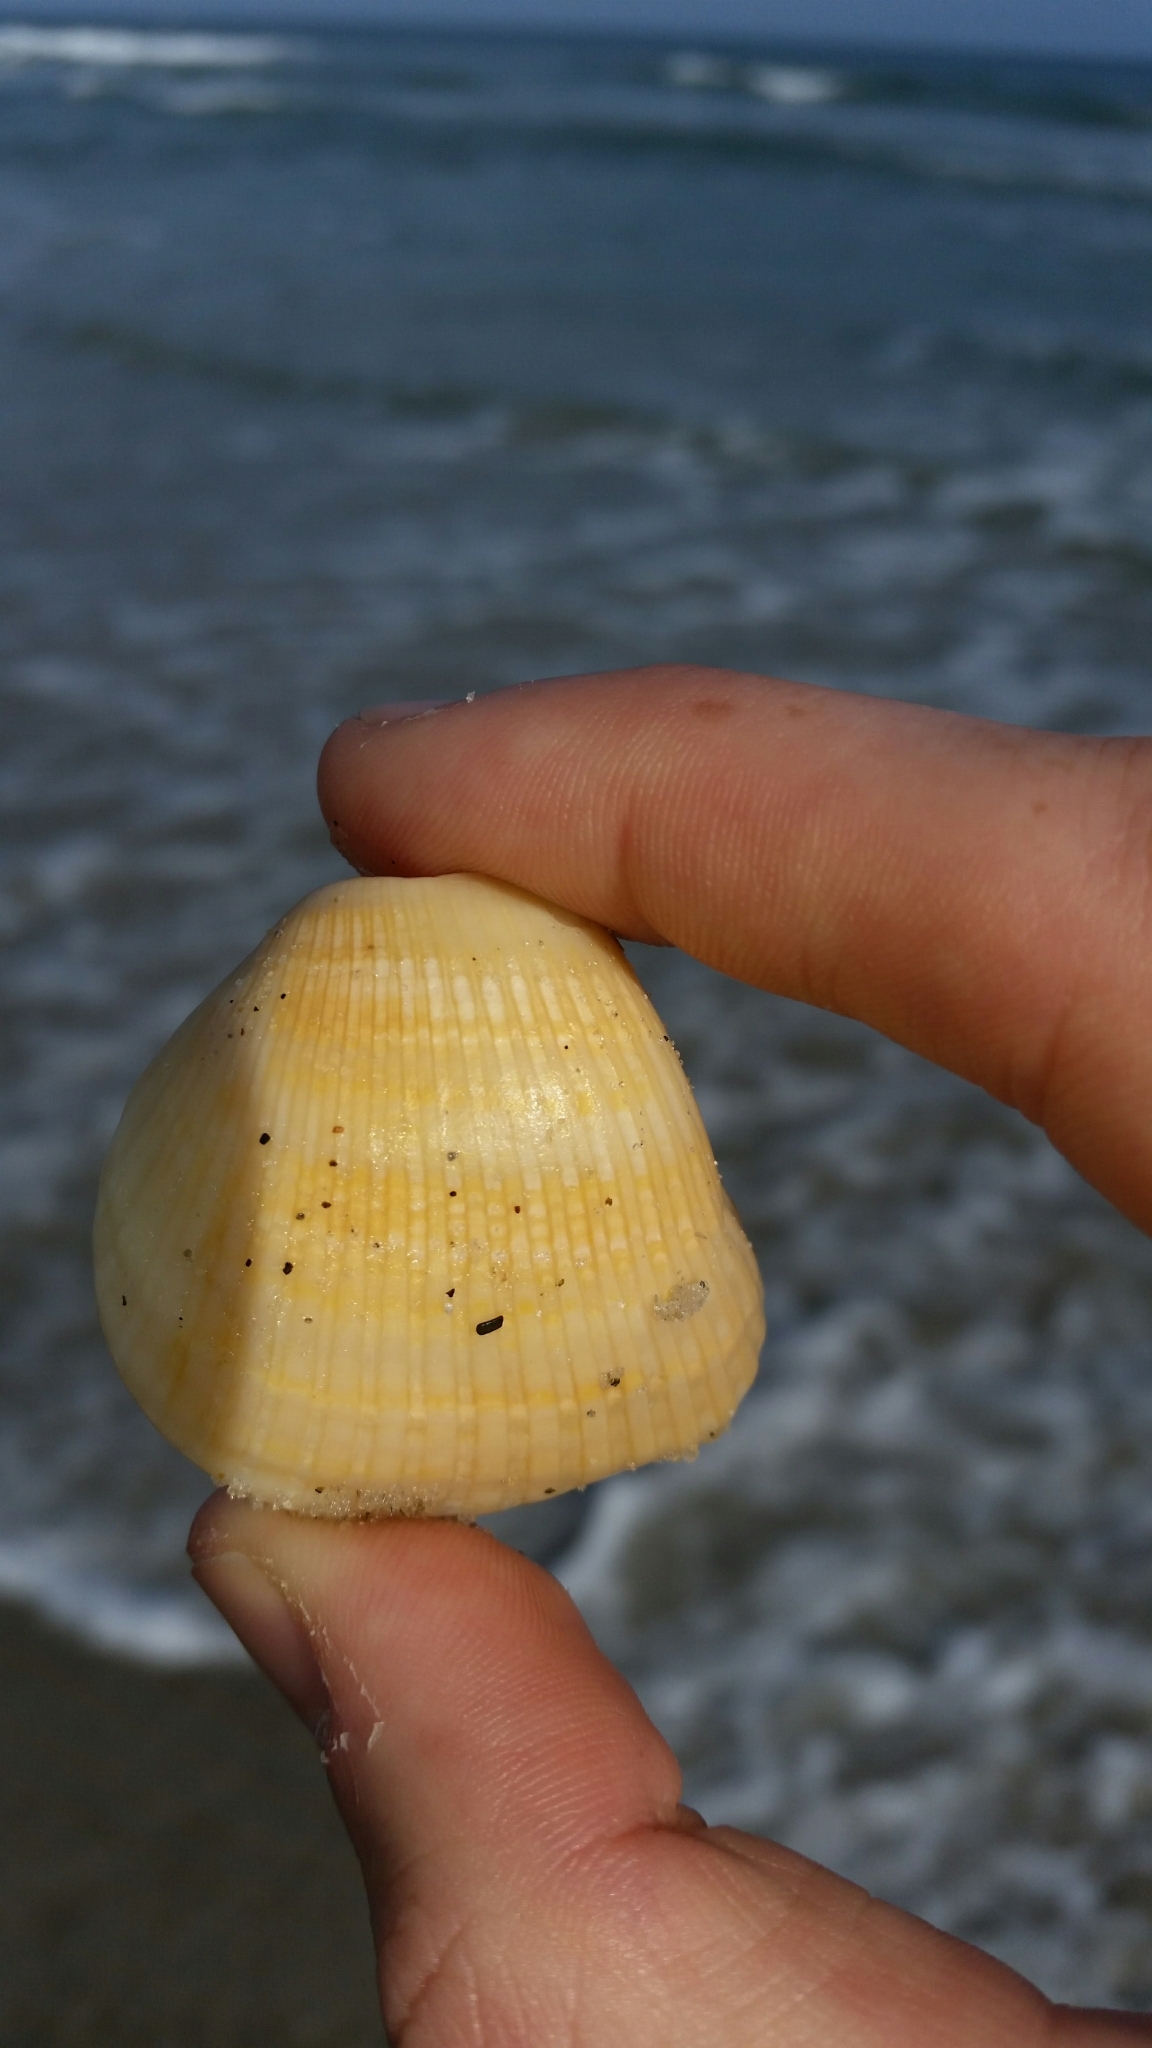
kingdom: Animalia
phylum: Mollusca
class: Bivalvia
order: Arcida
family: Noetiidae
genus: Noetia
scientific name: Noetia ponderosa
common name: Ponderous ark
